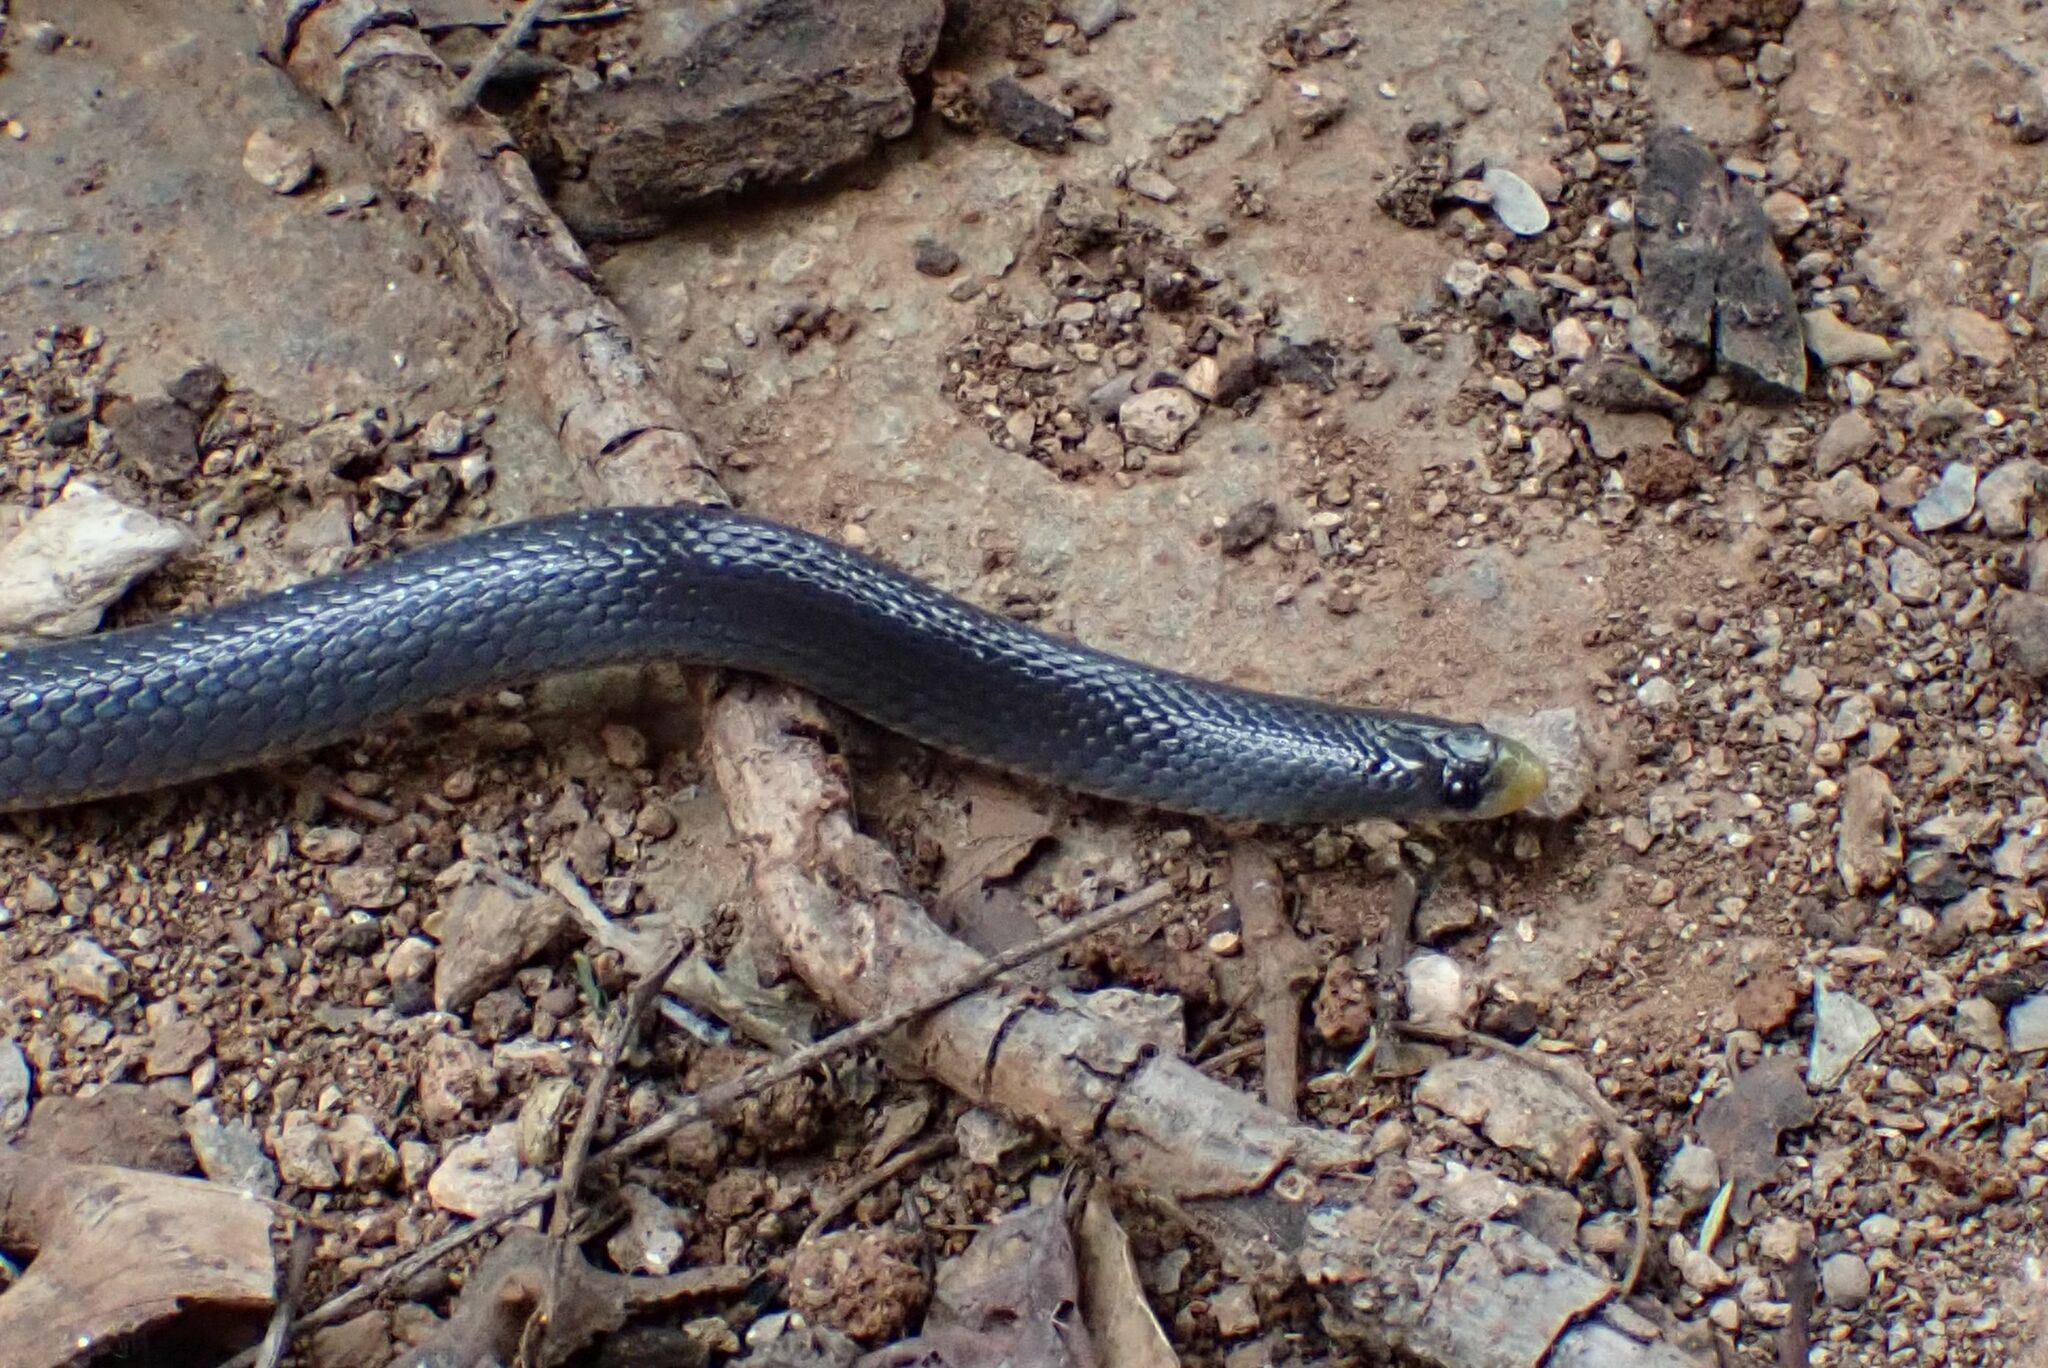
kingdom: Animalia
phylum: Chordata
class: Squamata
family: Prosymnidae
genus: Prosymna
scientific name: Prosymna stuhlmanni
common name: East african shovel-snout snake
